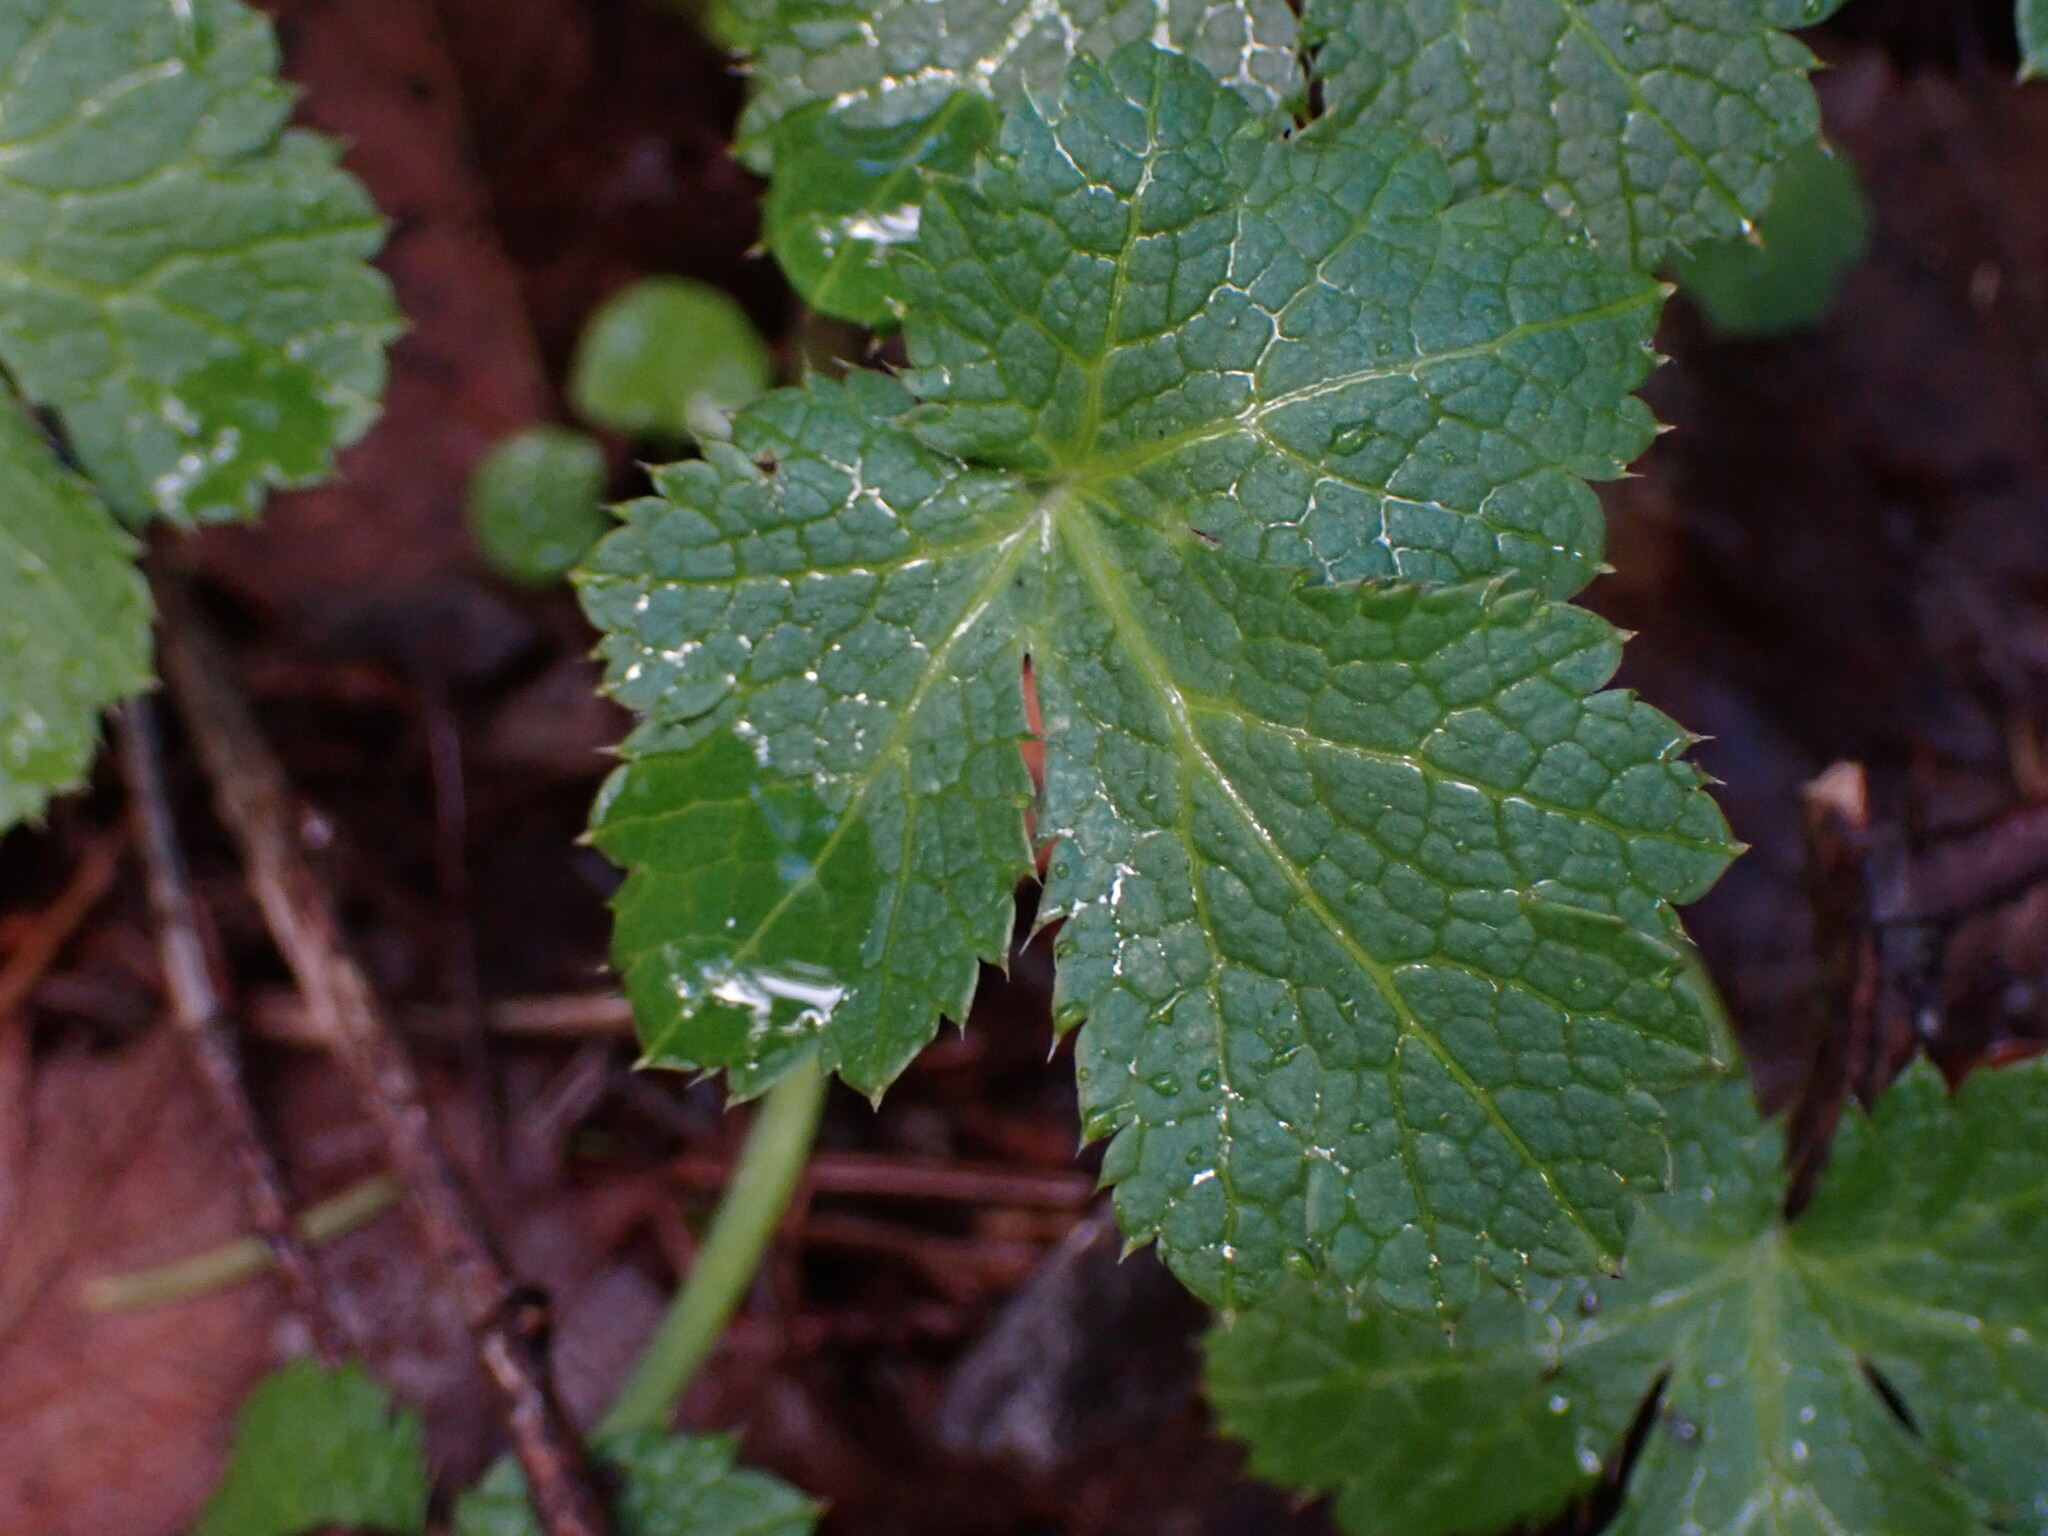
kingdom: Plantae
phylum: Tracheophyta
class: Magnoliopsida
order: Apiales
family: Apiaceae
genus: Sanicula
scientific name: Sanicula crassicaulis
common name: Western snakeroot
